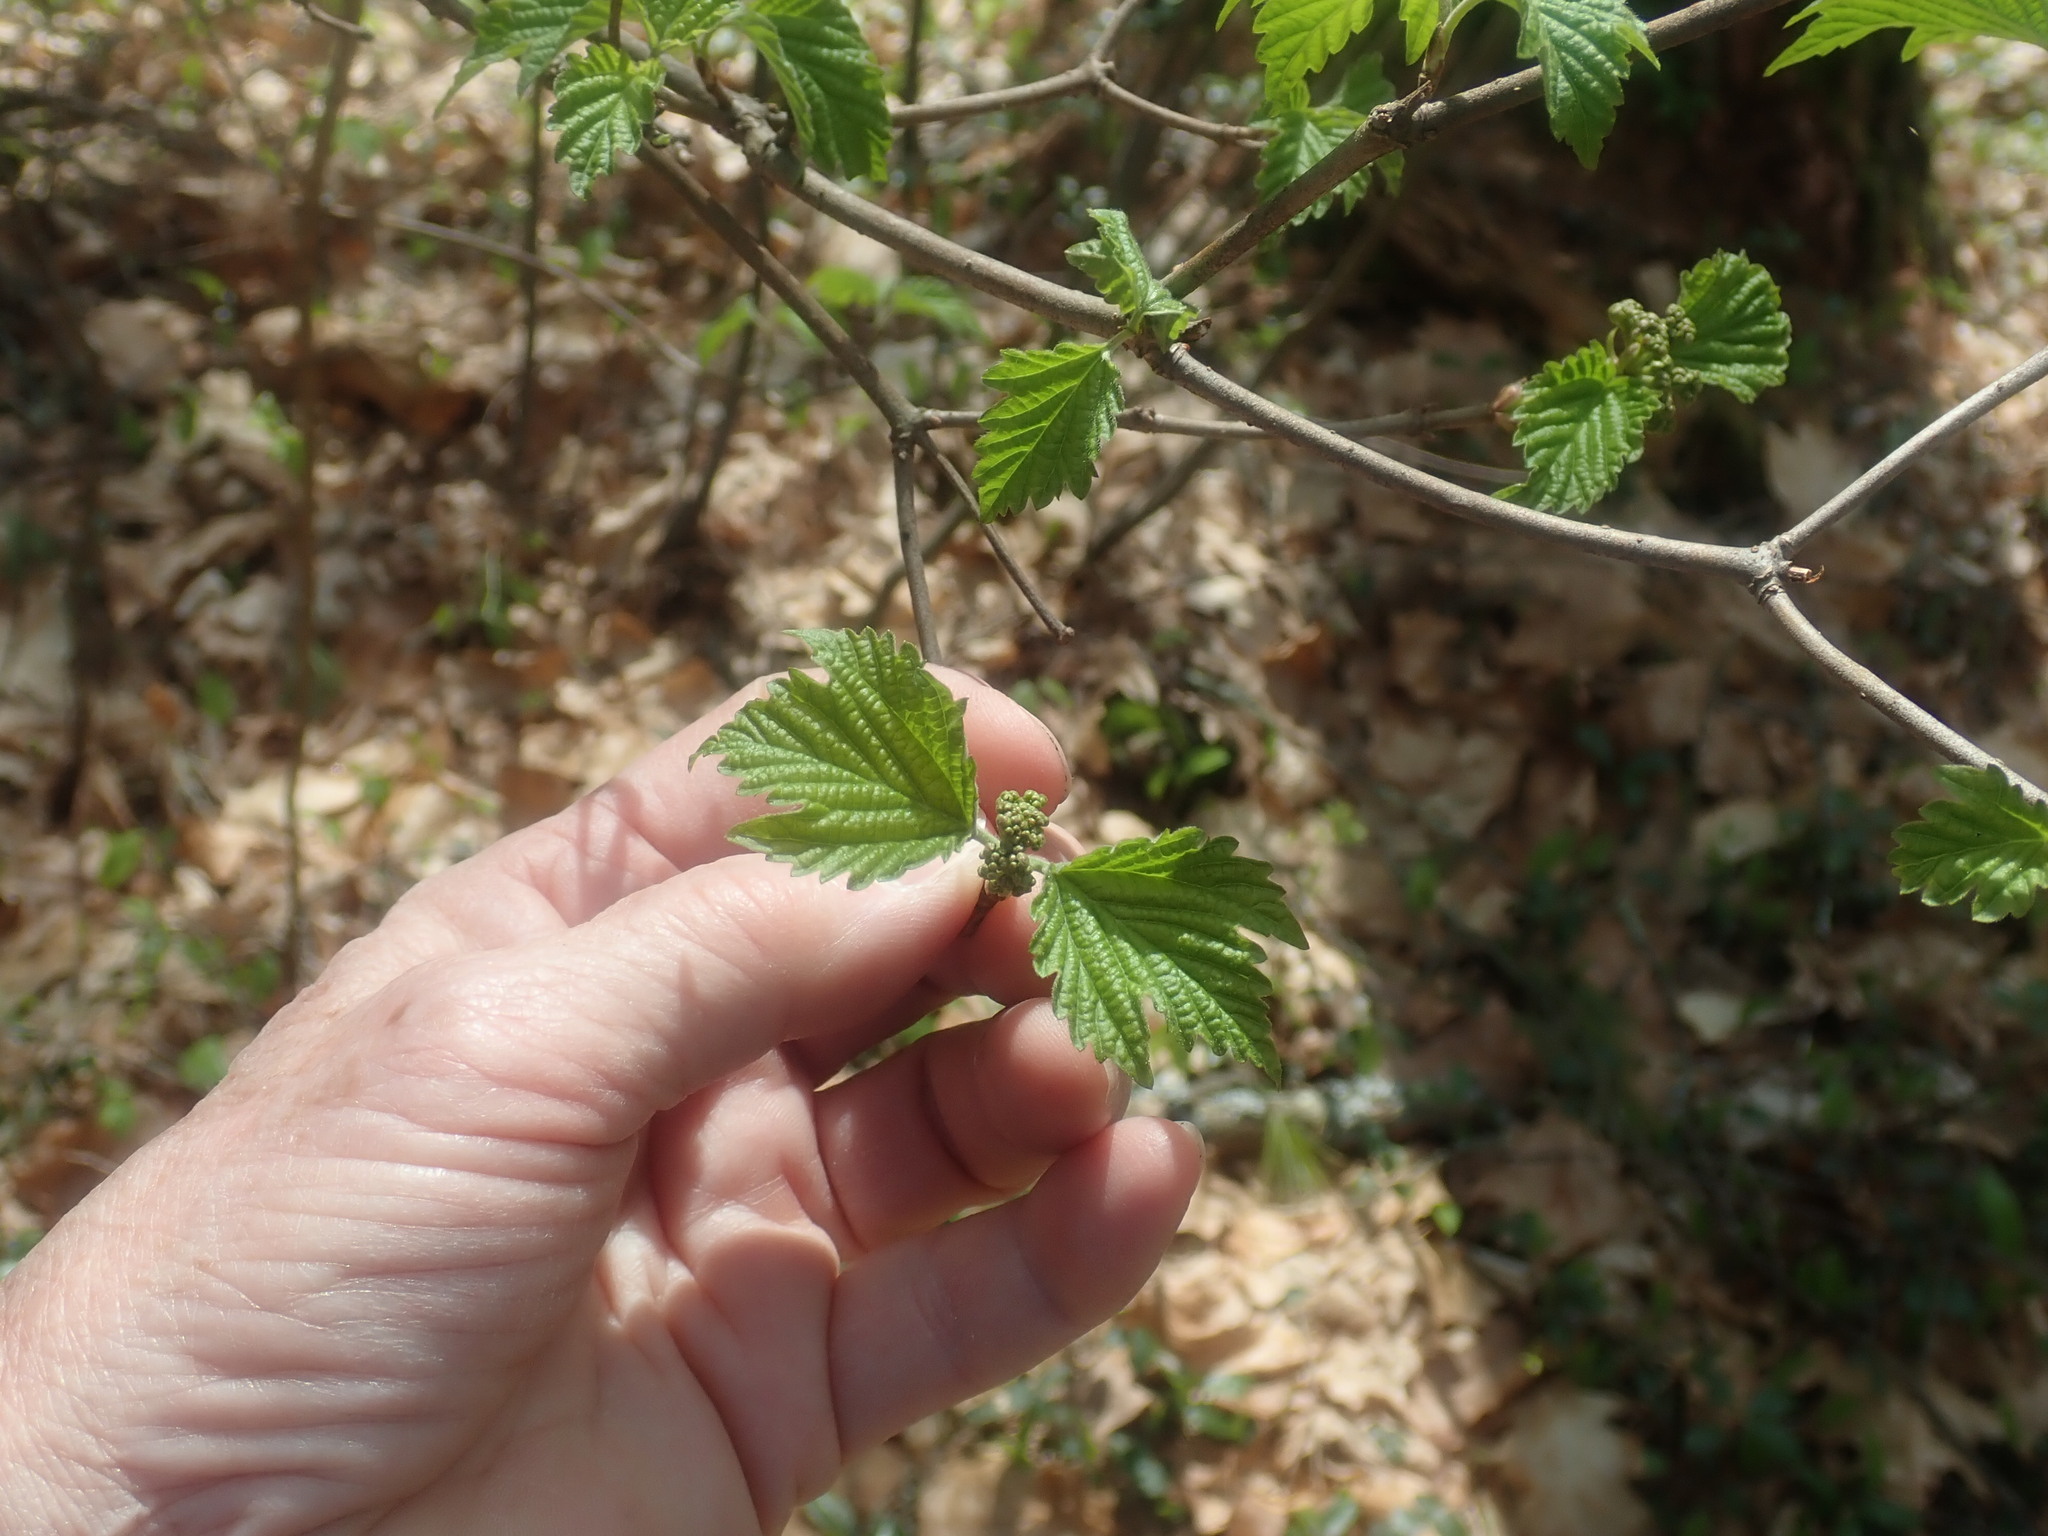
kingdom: Plantae
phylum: Tracheophyta
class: Magnoliopsida
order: Dipsacales
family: Viburnaceae
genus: Viburnum
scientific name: Viburnum acerifolium
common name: Dockmackie
